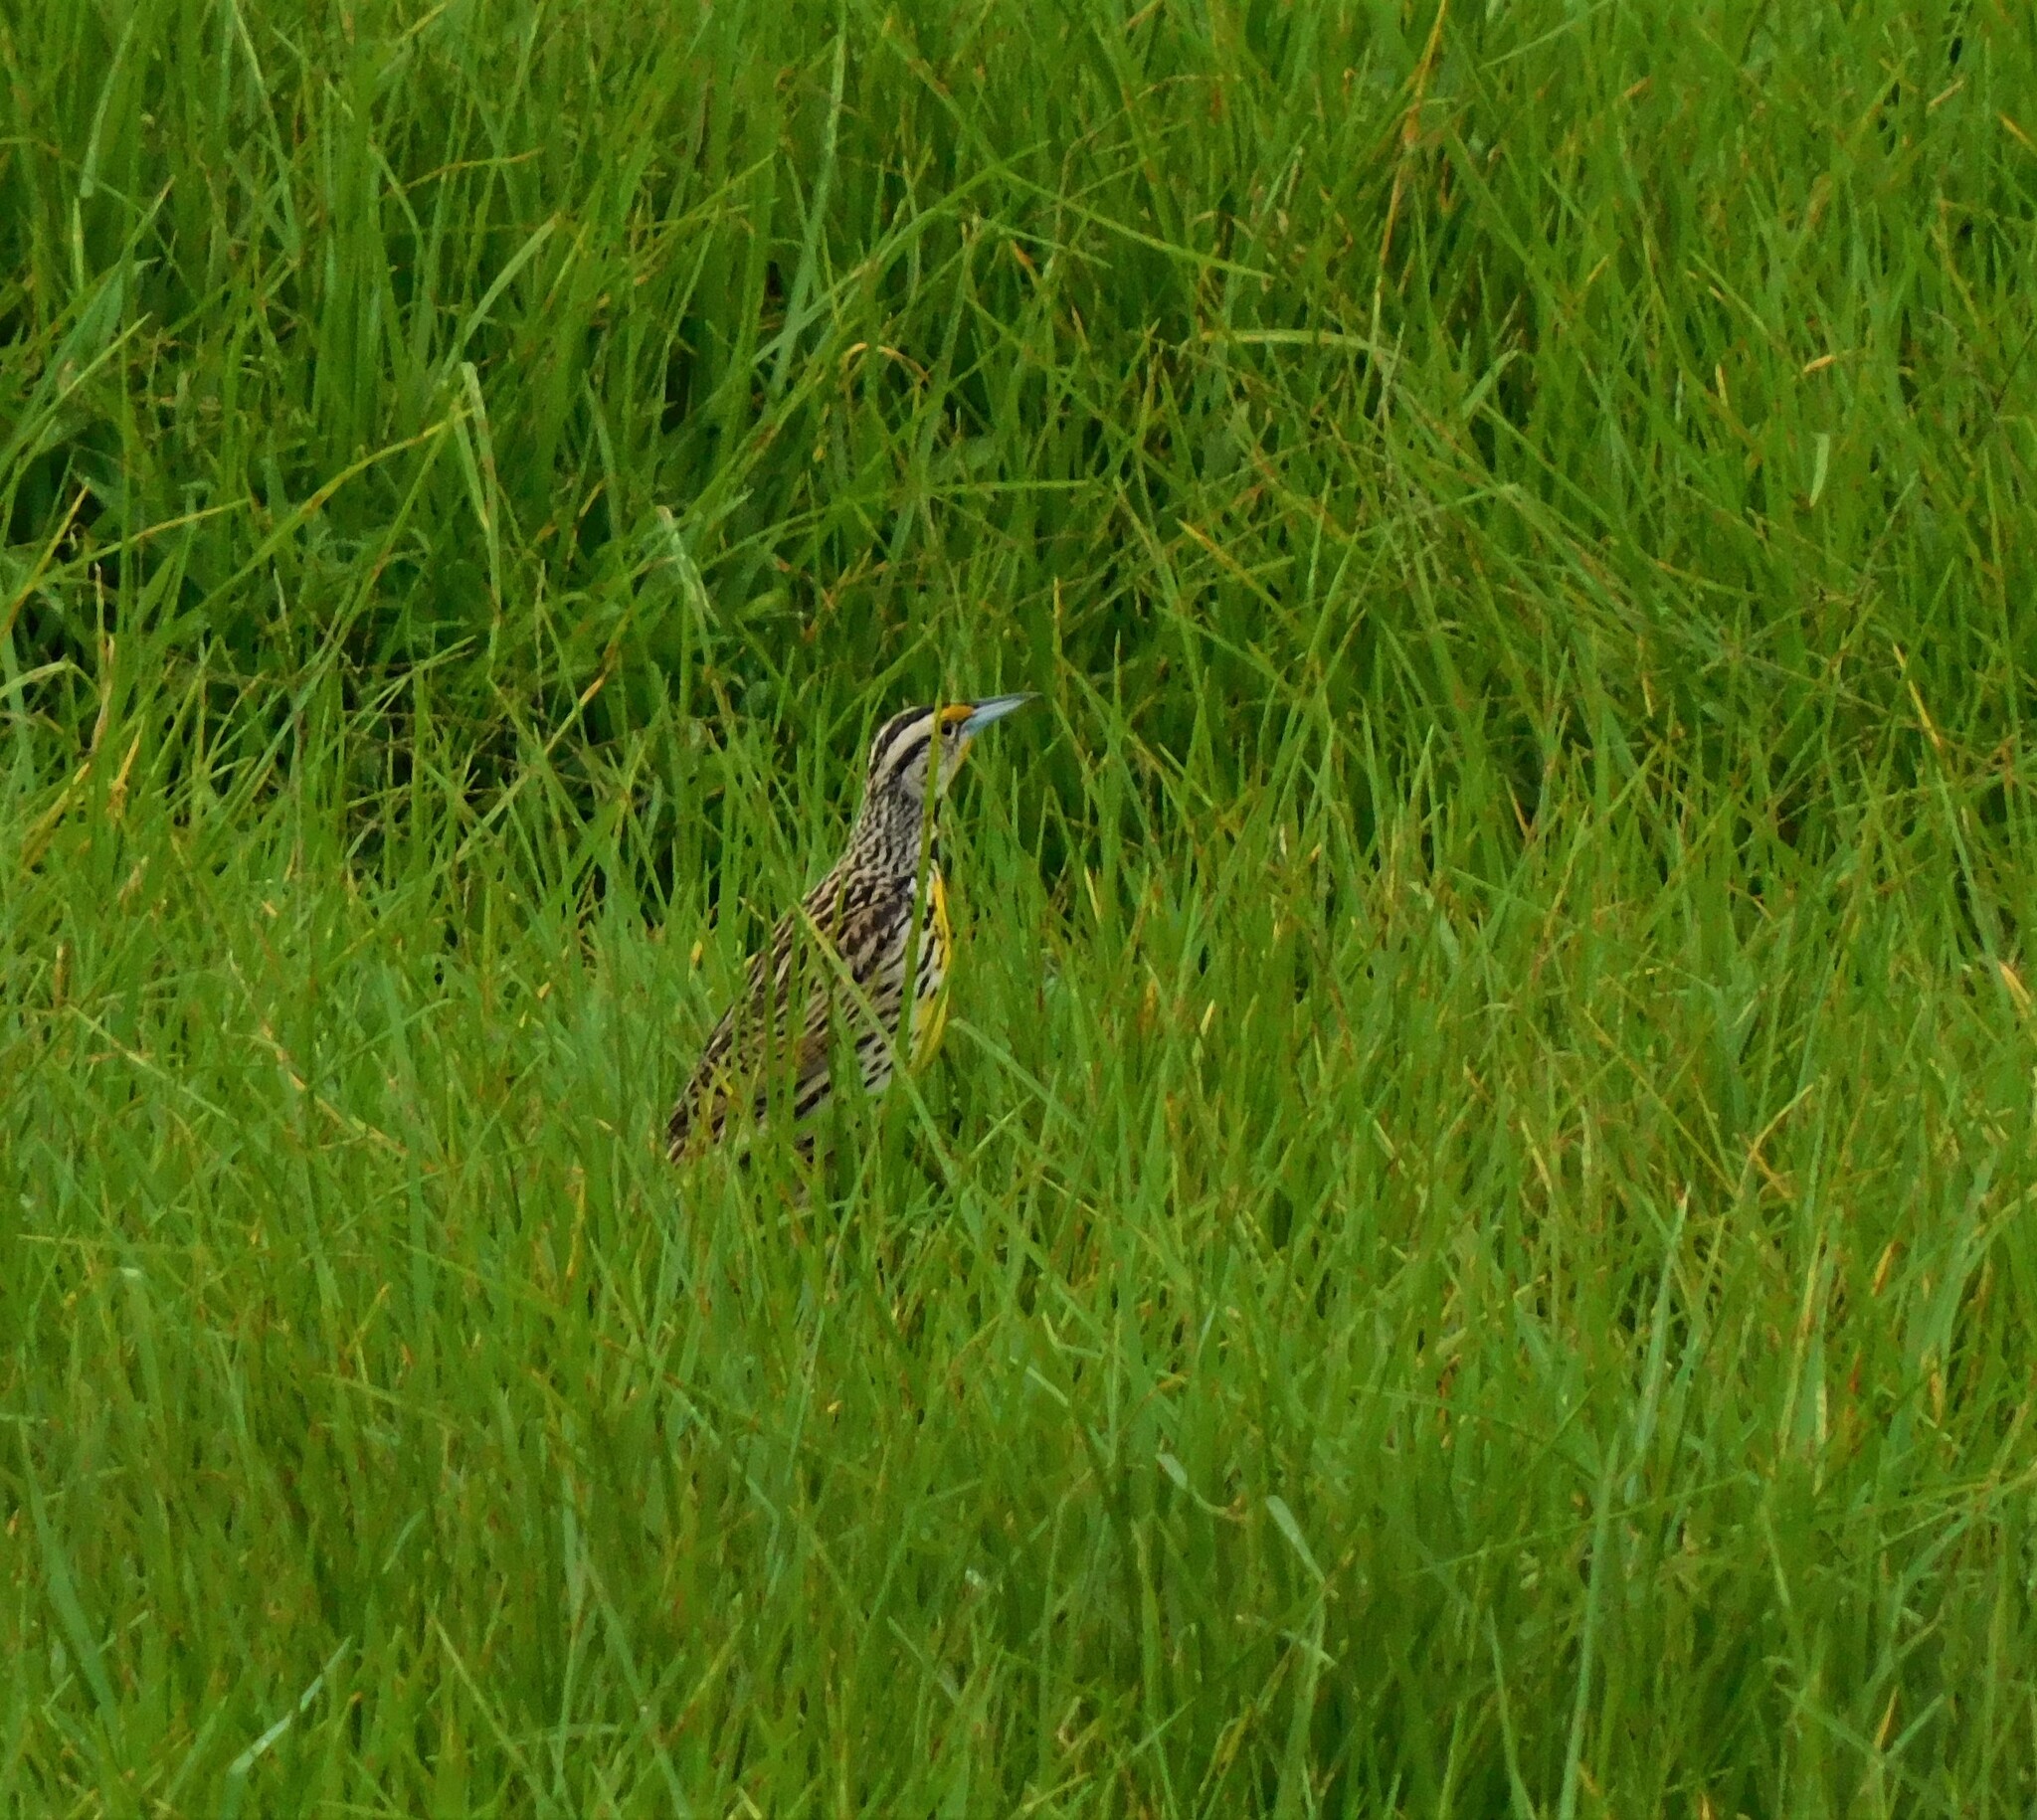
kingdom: Animalia
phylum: Chordata
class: Aves
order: Passeriformes
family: Icteridae
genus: Sturnella
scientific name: Sturnella magna
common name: Eastern meadowlark
